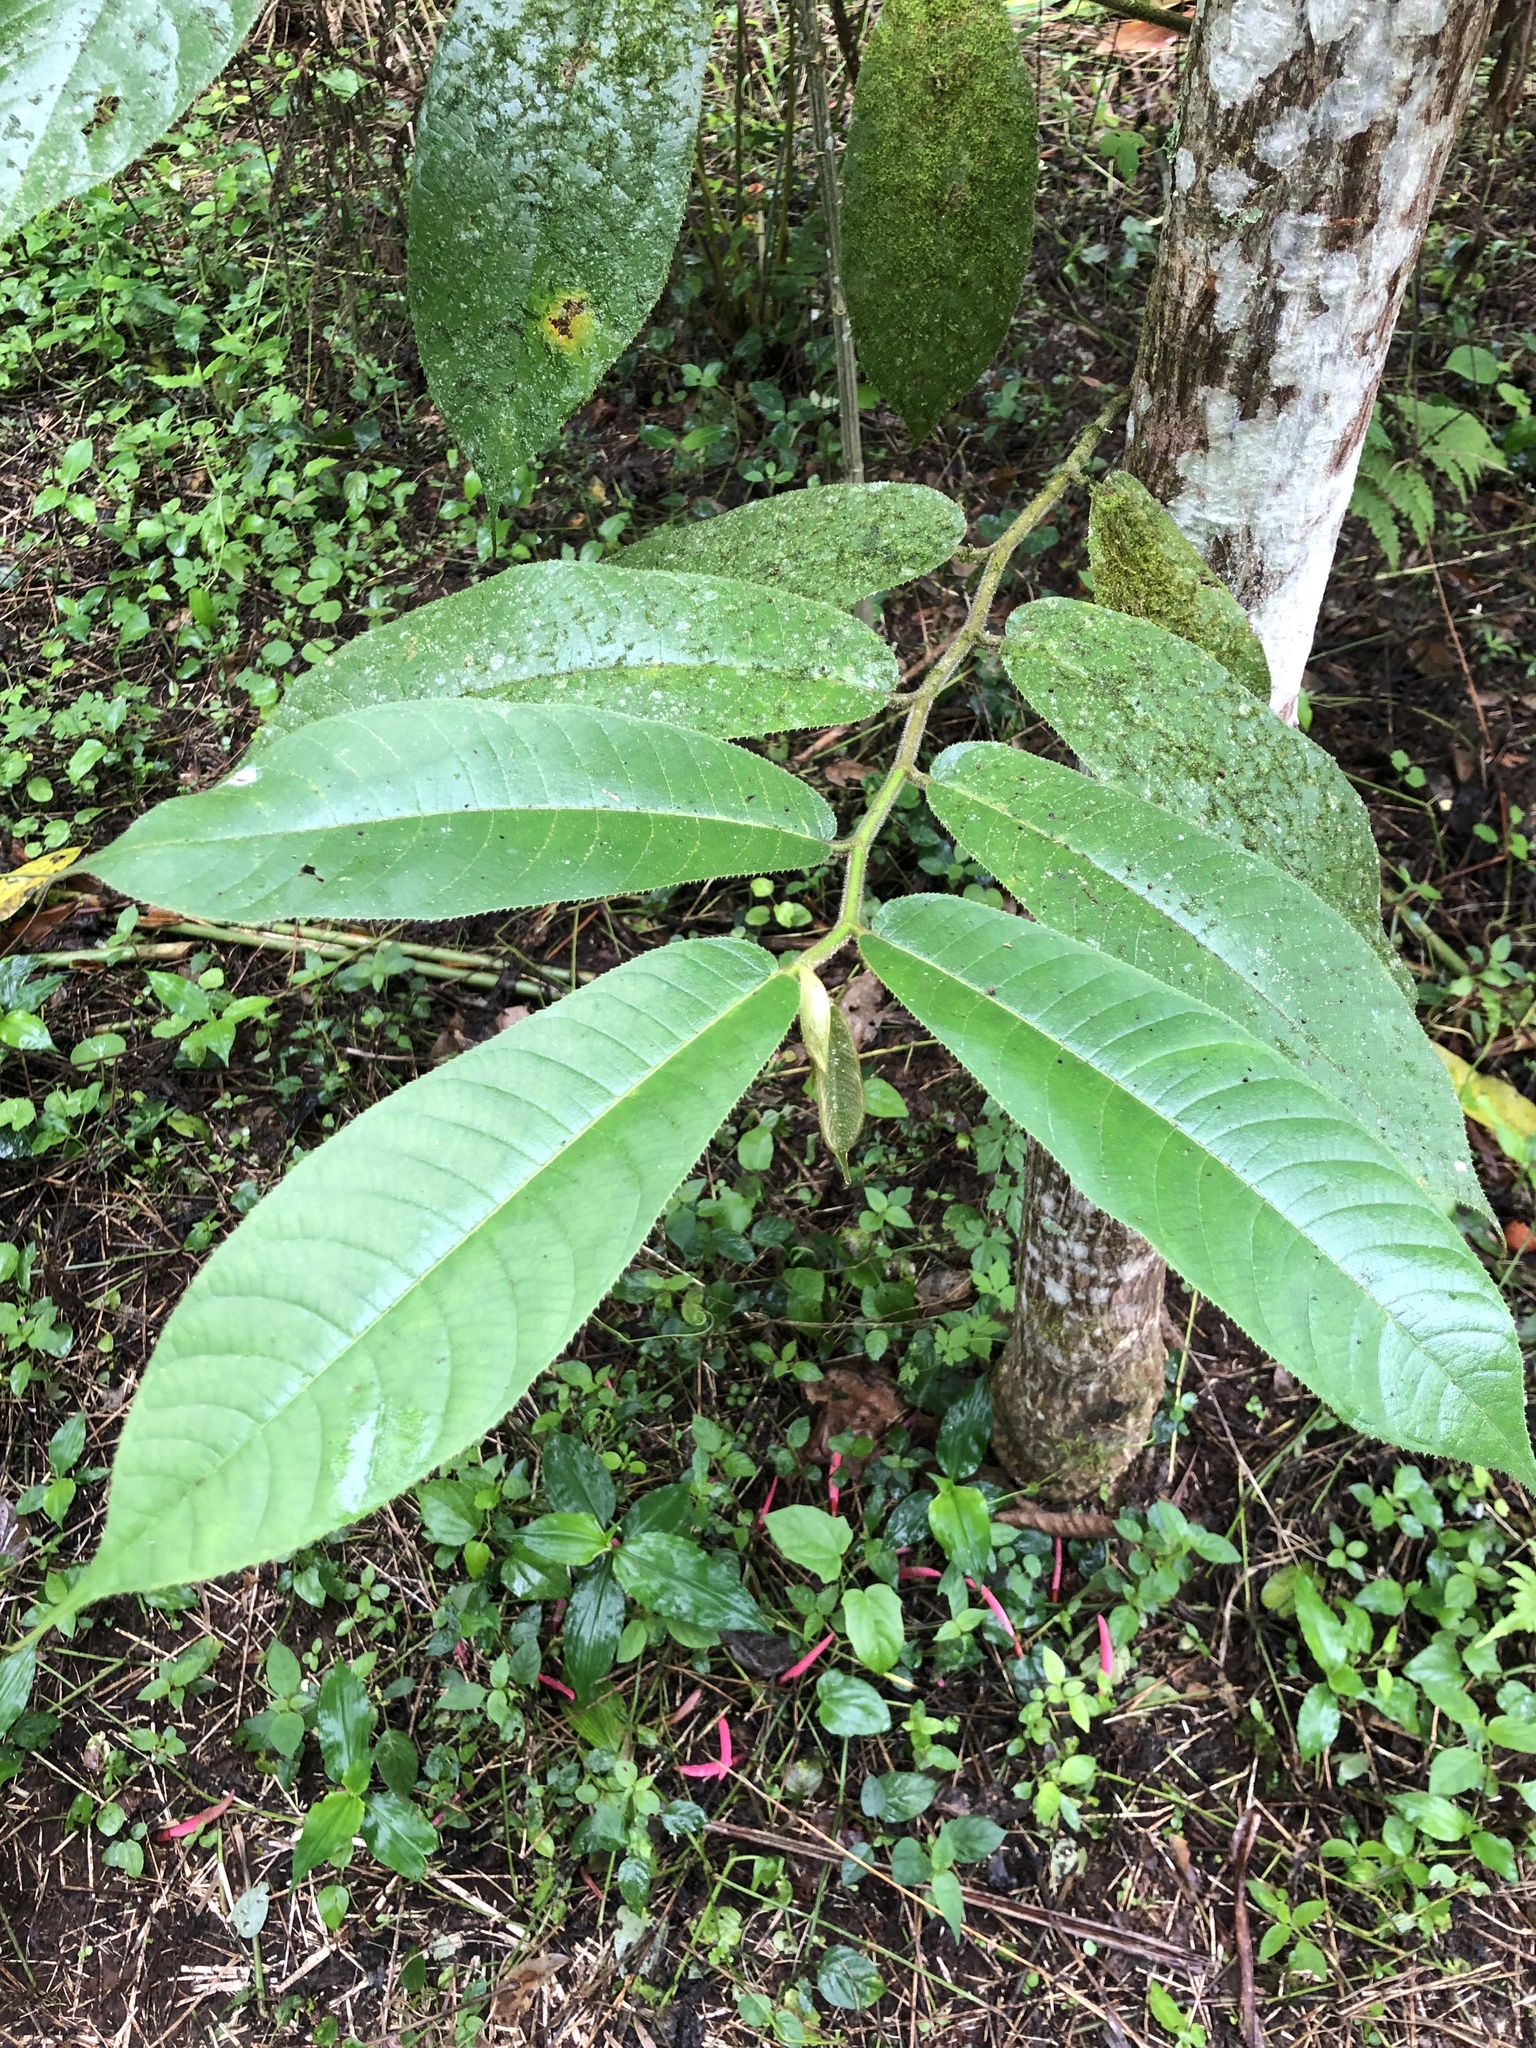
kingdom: Plantae
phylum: Tracheophyta
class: Magnoliopsida
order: Rosales
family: Moraceae
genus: Castilla
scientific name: Castilla elastica
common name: Castilla rubber
